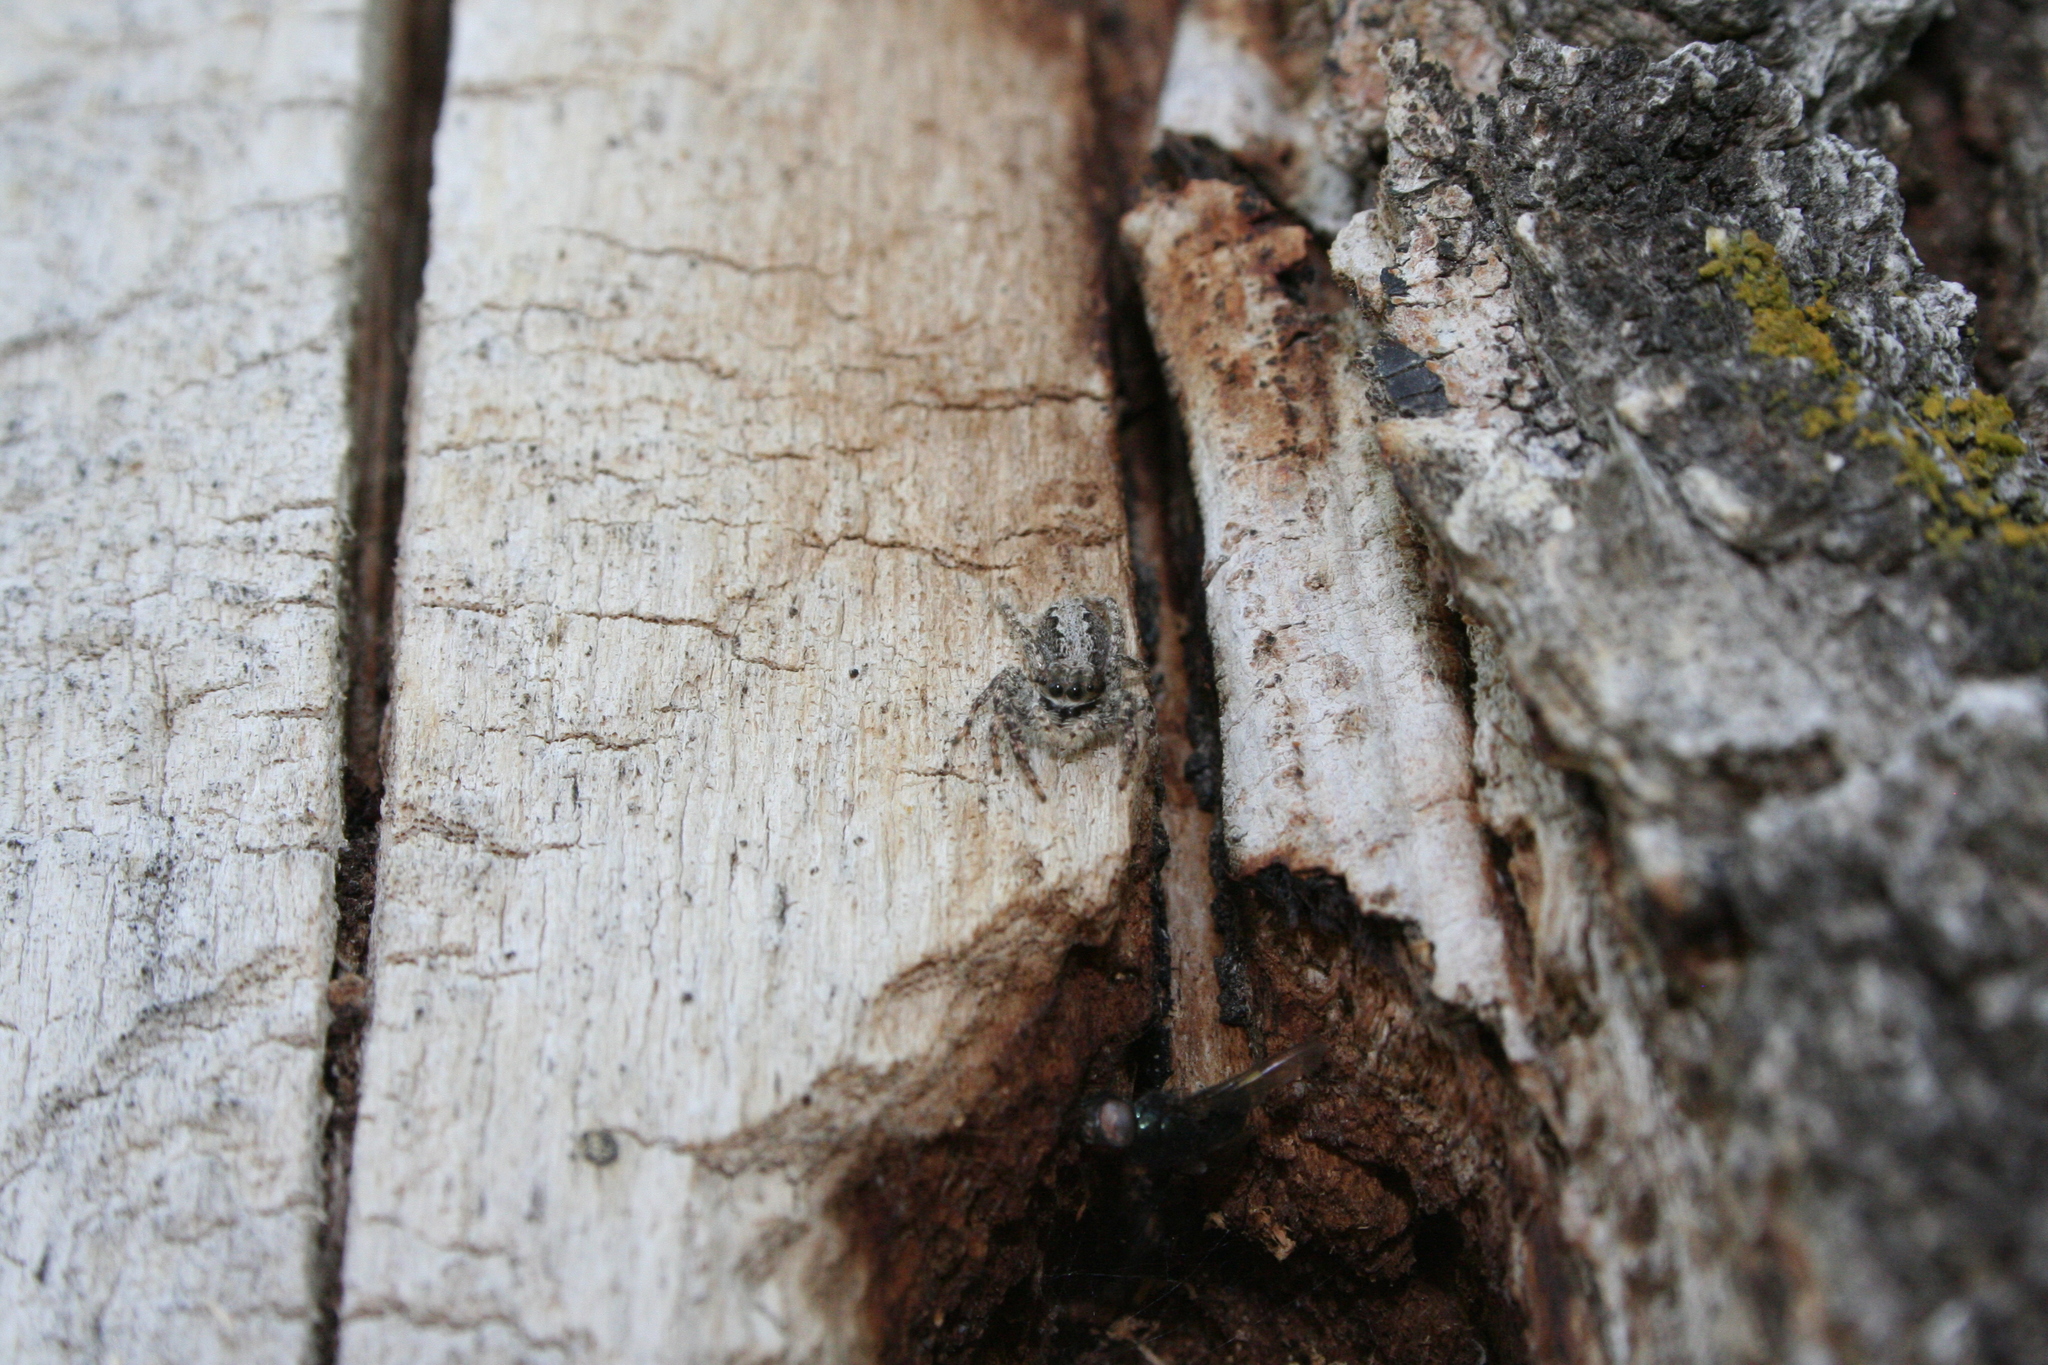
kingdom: Animalia
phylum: Arthropoda
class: Arachnida
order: Araneae
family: Salticidae
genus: Platycryptus
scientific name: Platycryptus californicus
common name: Jumping spiders
